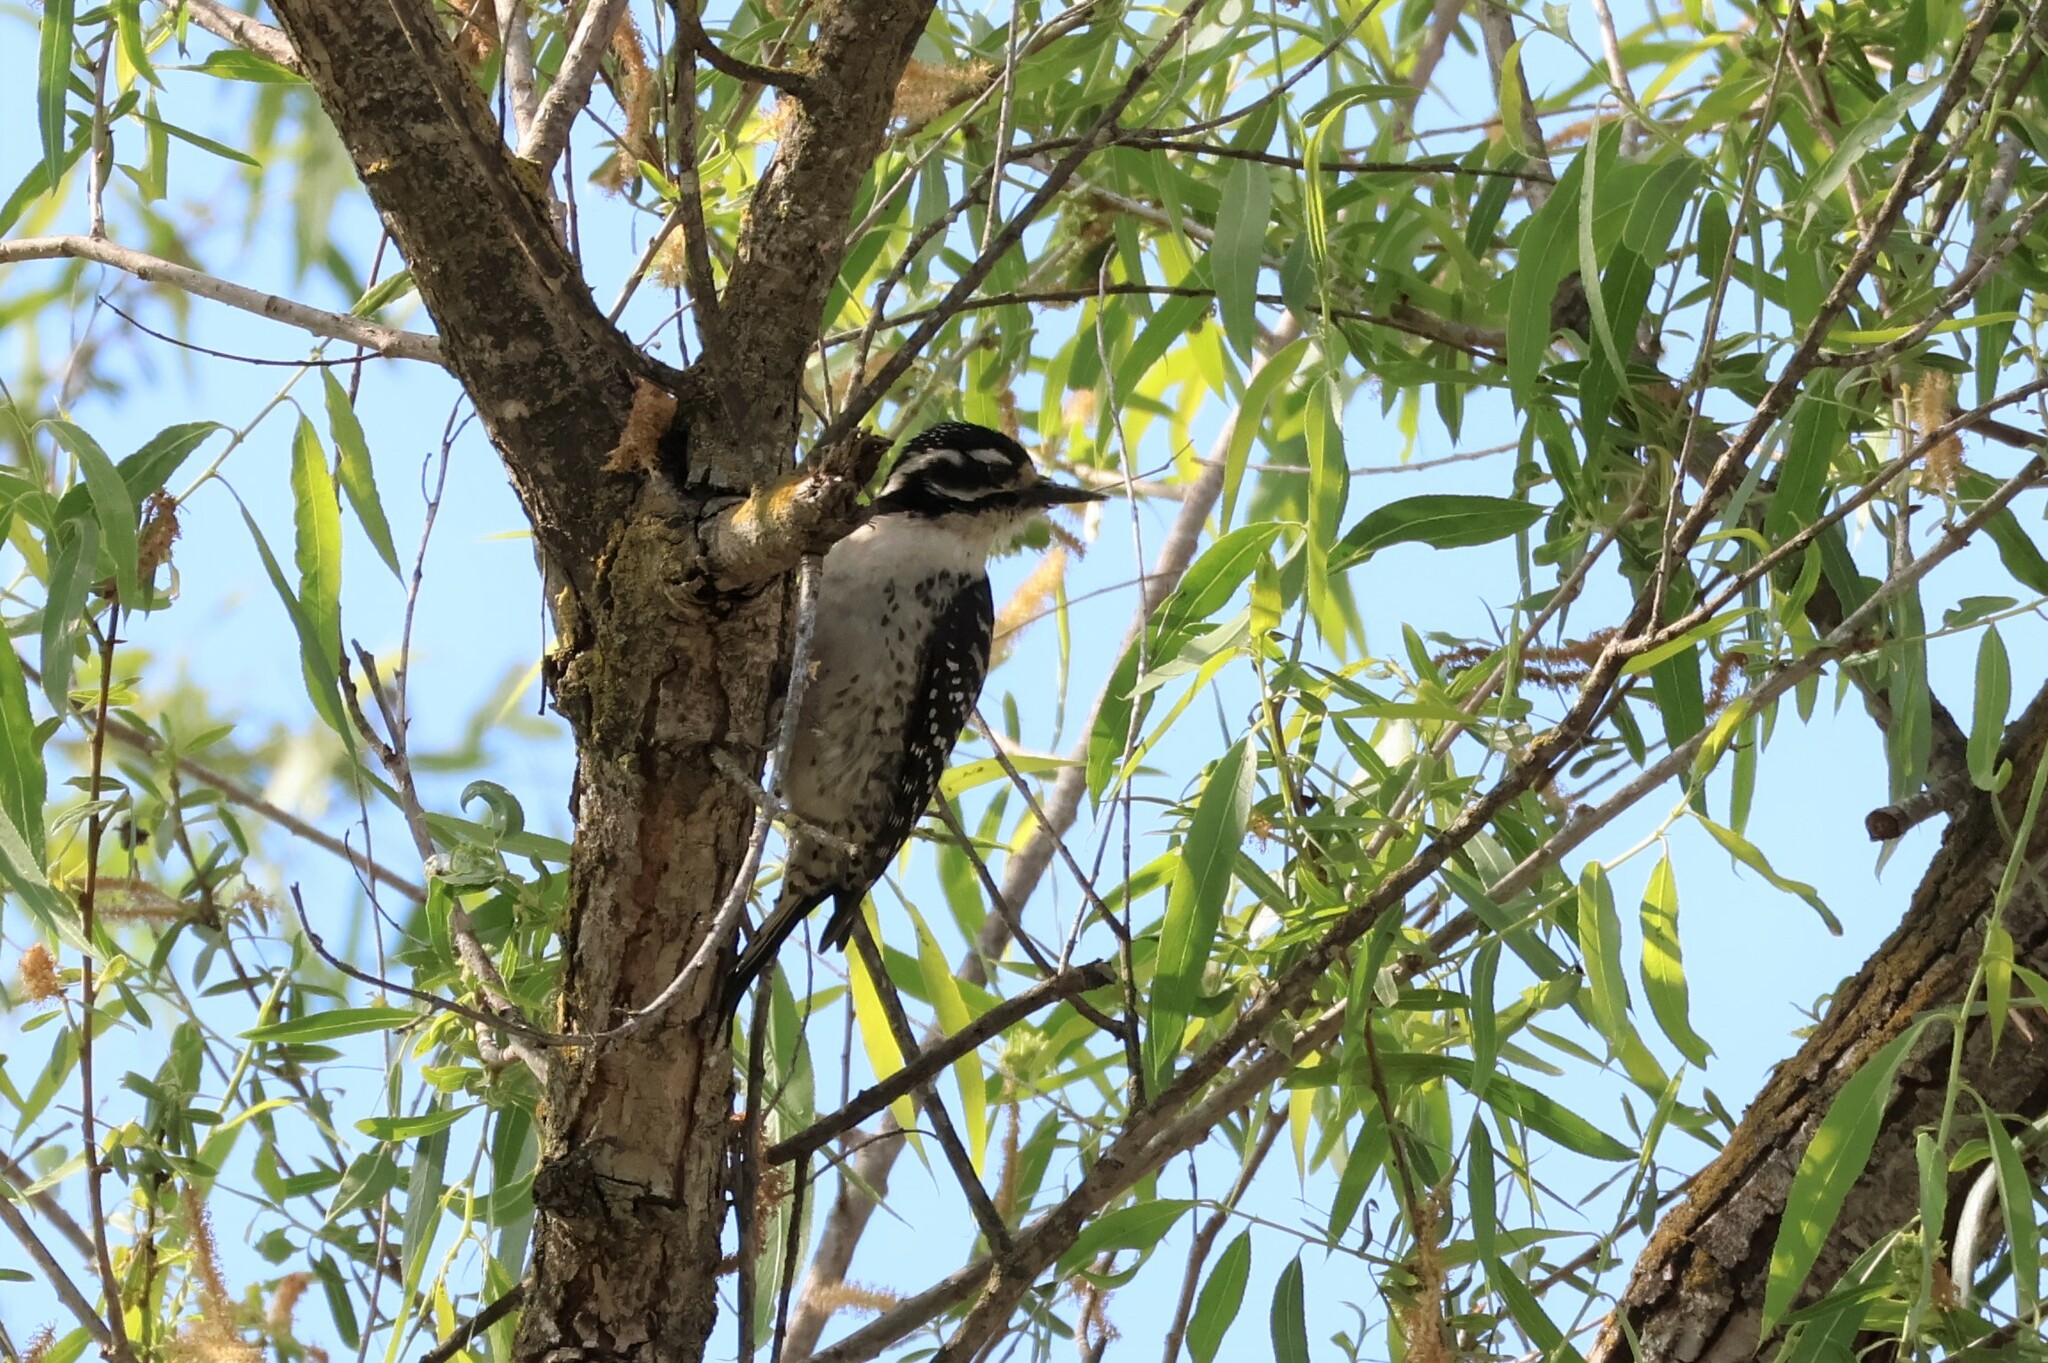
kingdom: Animalia
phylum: Chordata
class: Aves
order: Piciformes
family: Picidae
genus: Dryobates
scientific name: Dryobates nuttallii
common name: Nuttall's woodpecker
